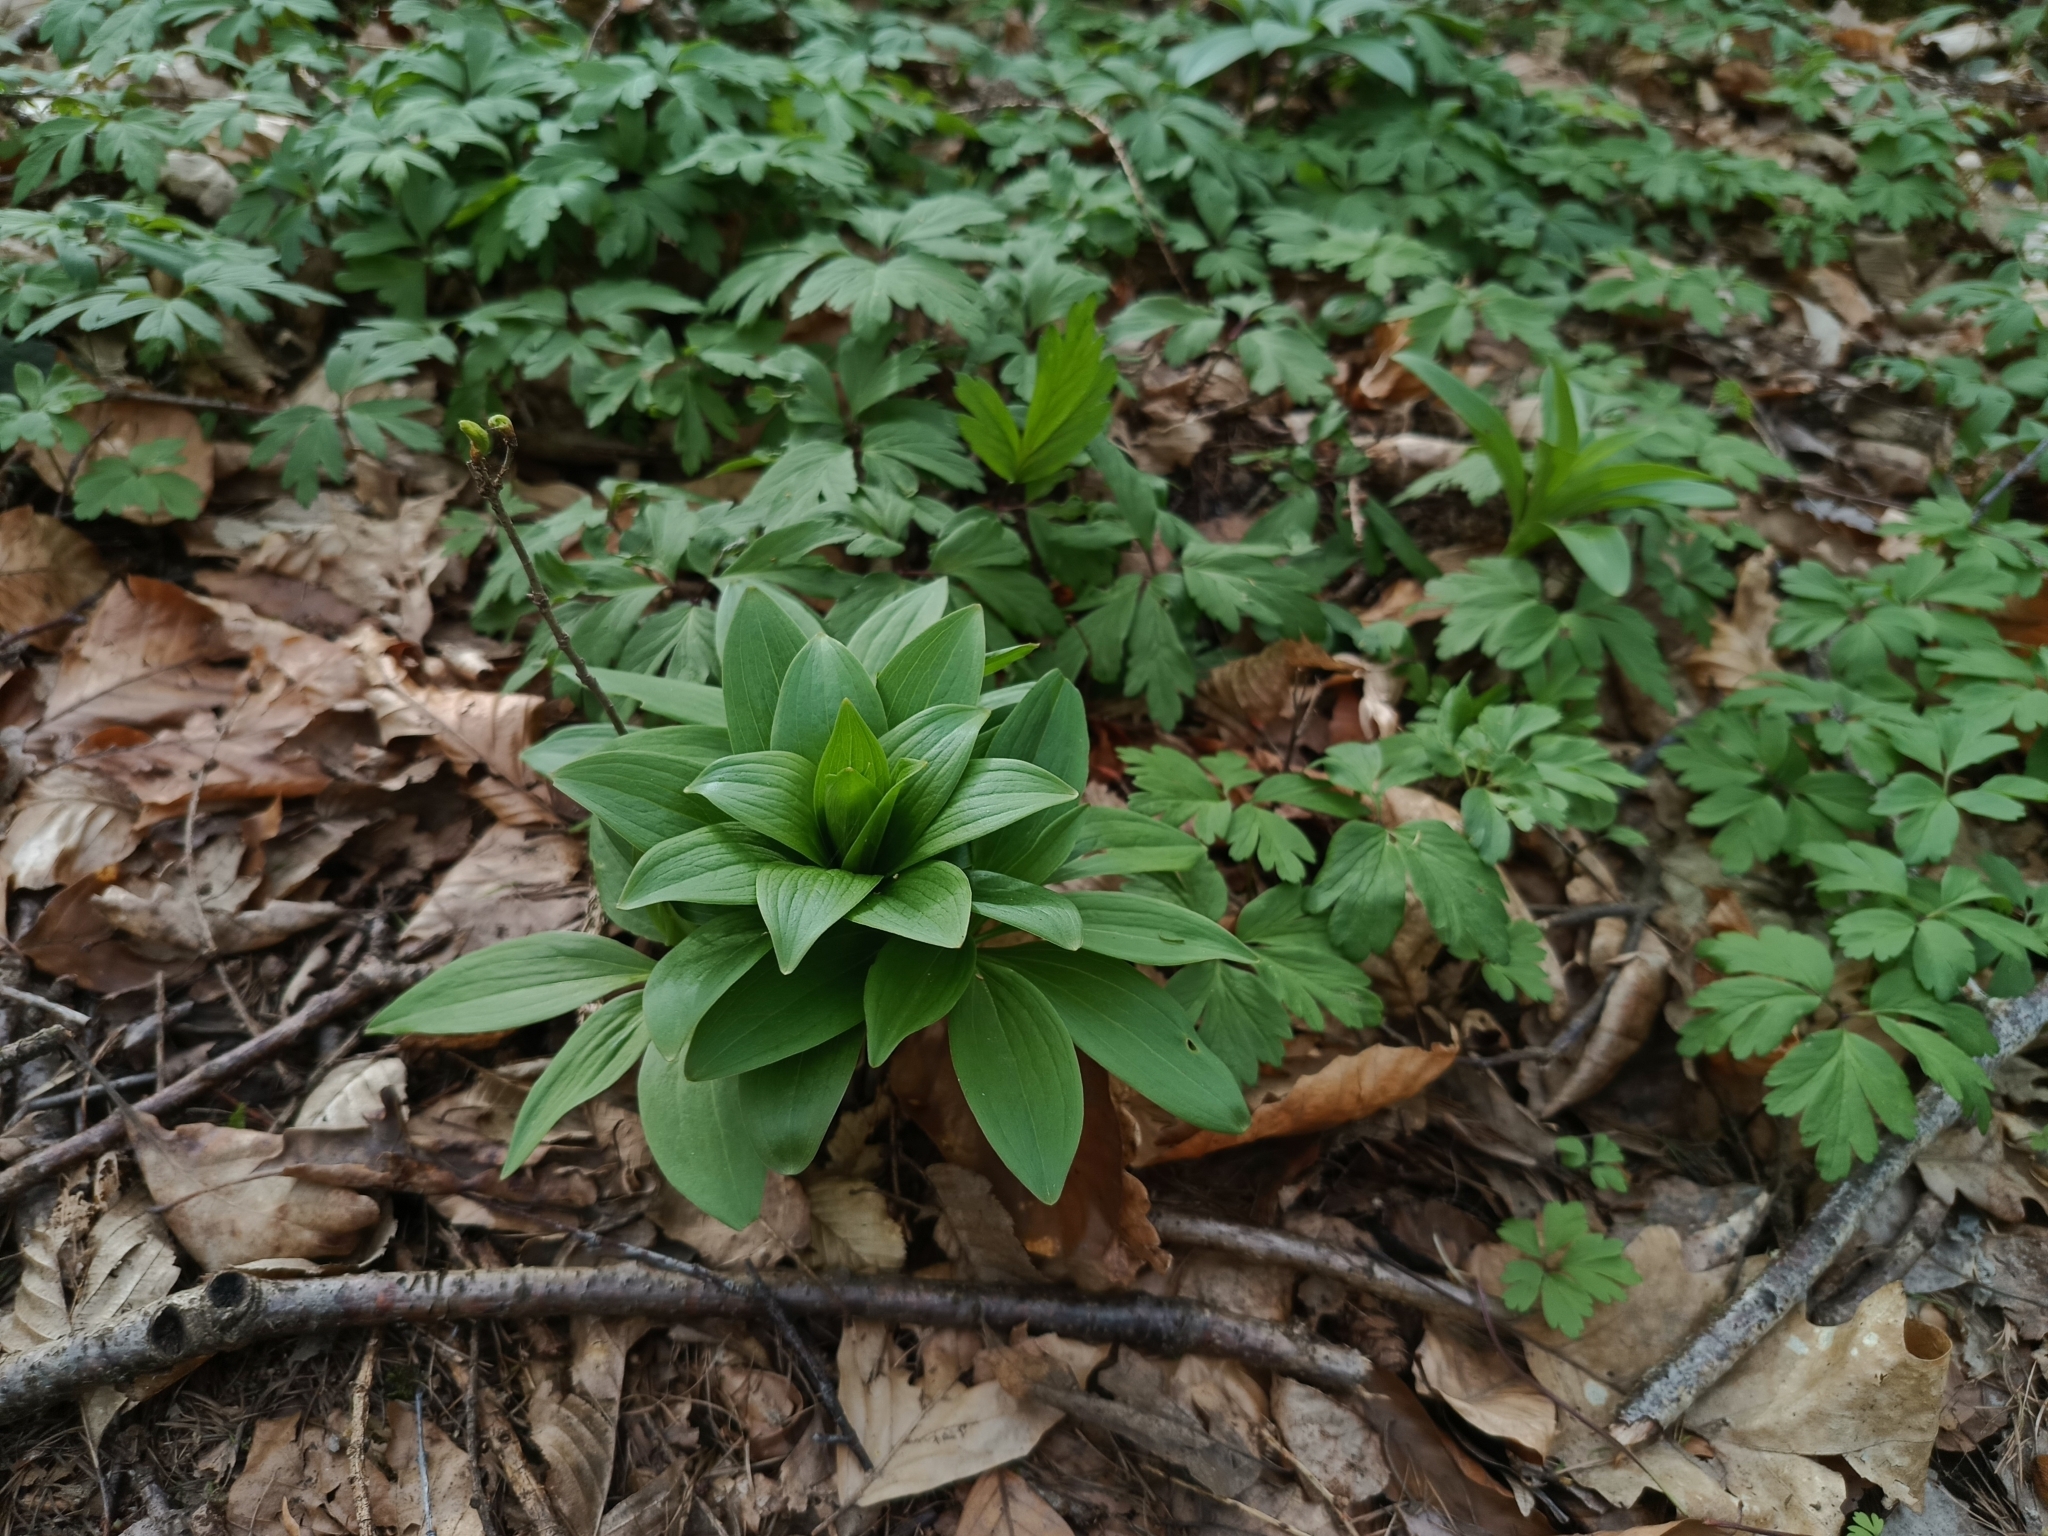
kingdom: Plantae
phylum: Tracheophyta
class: Liliopsida
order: Liliales
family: Liliaceae
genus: Lilium
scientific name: Lilium martagon
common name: Martagon lily
